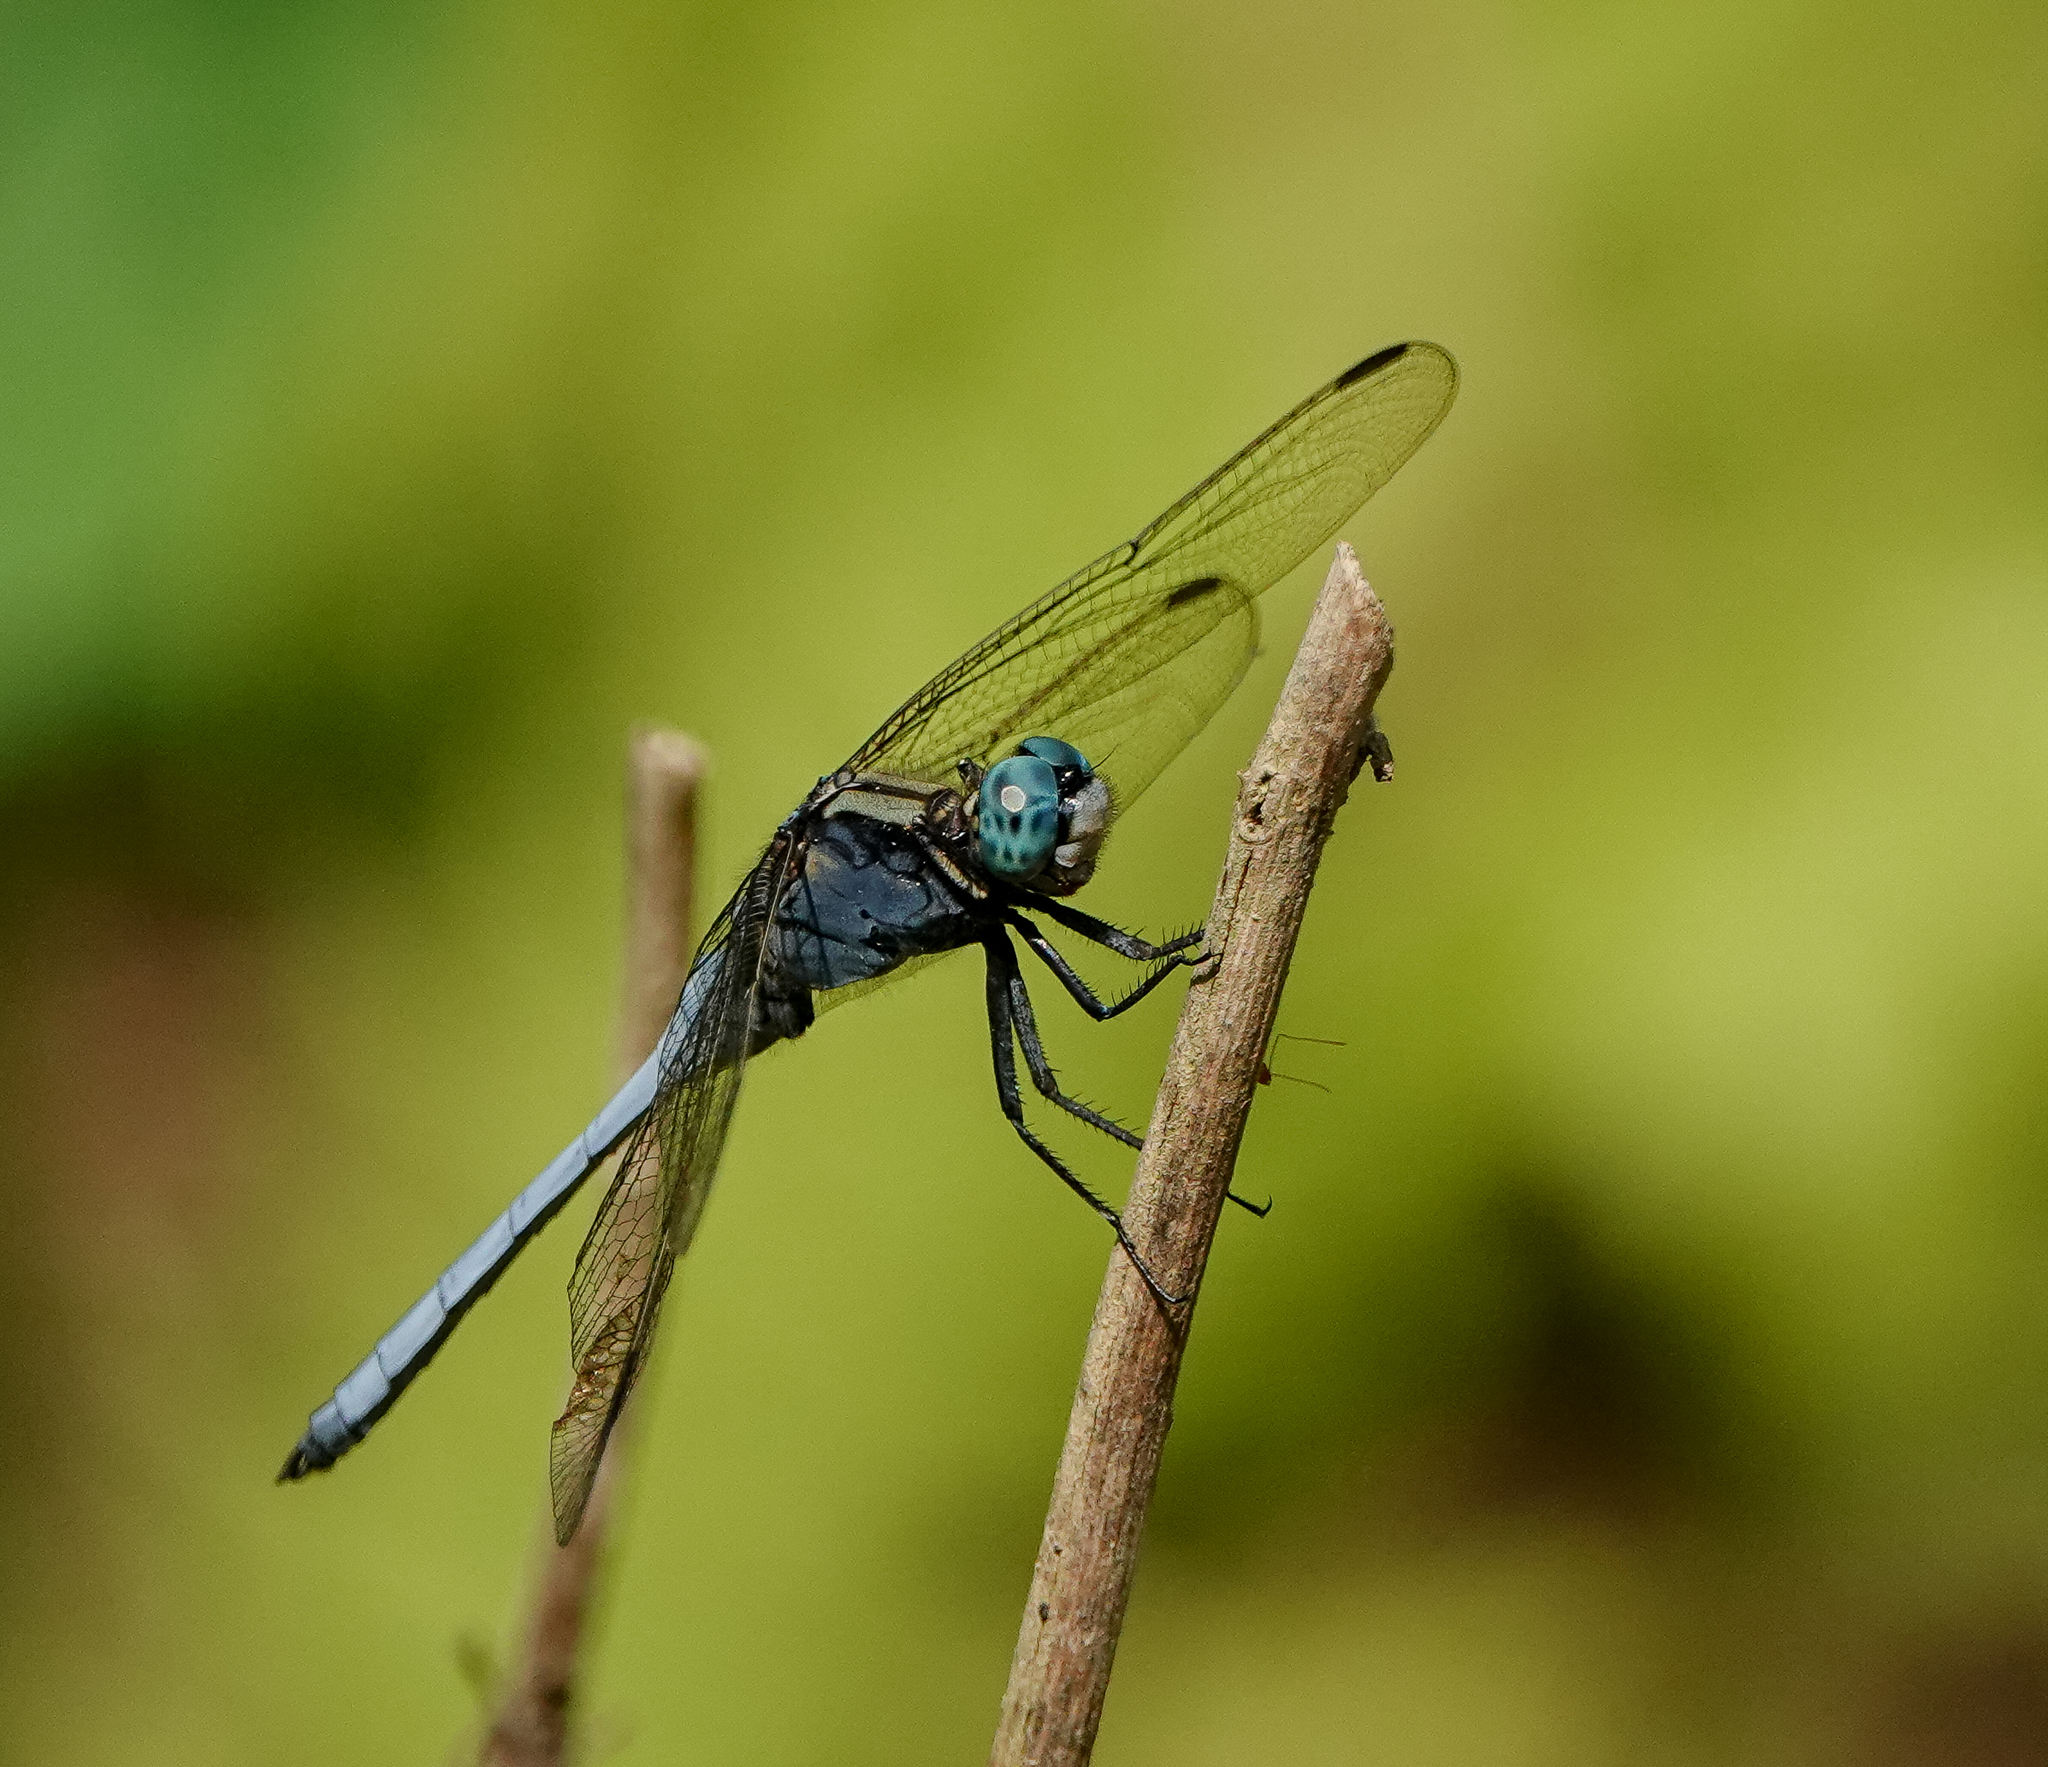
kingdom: Animalia
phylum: Arthropoda
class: Insecta
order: Odonata
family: Libellulidae
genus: Orthetrum
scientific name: Orthetrum luzonicum
